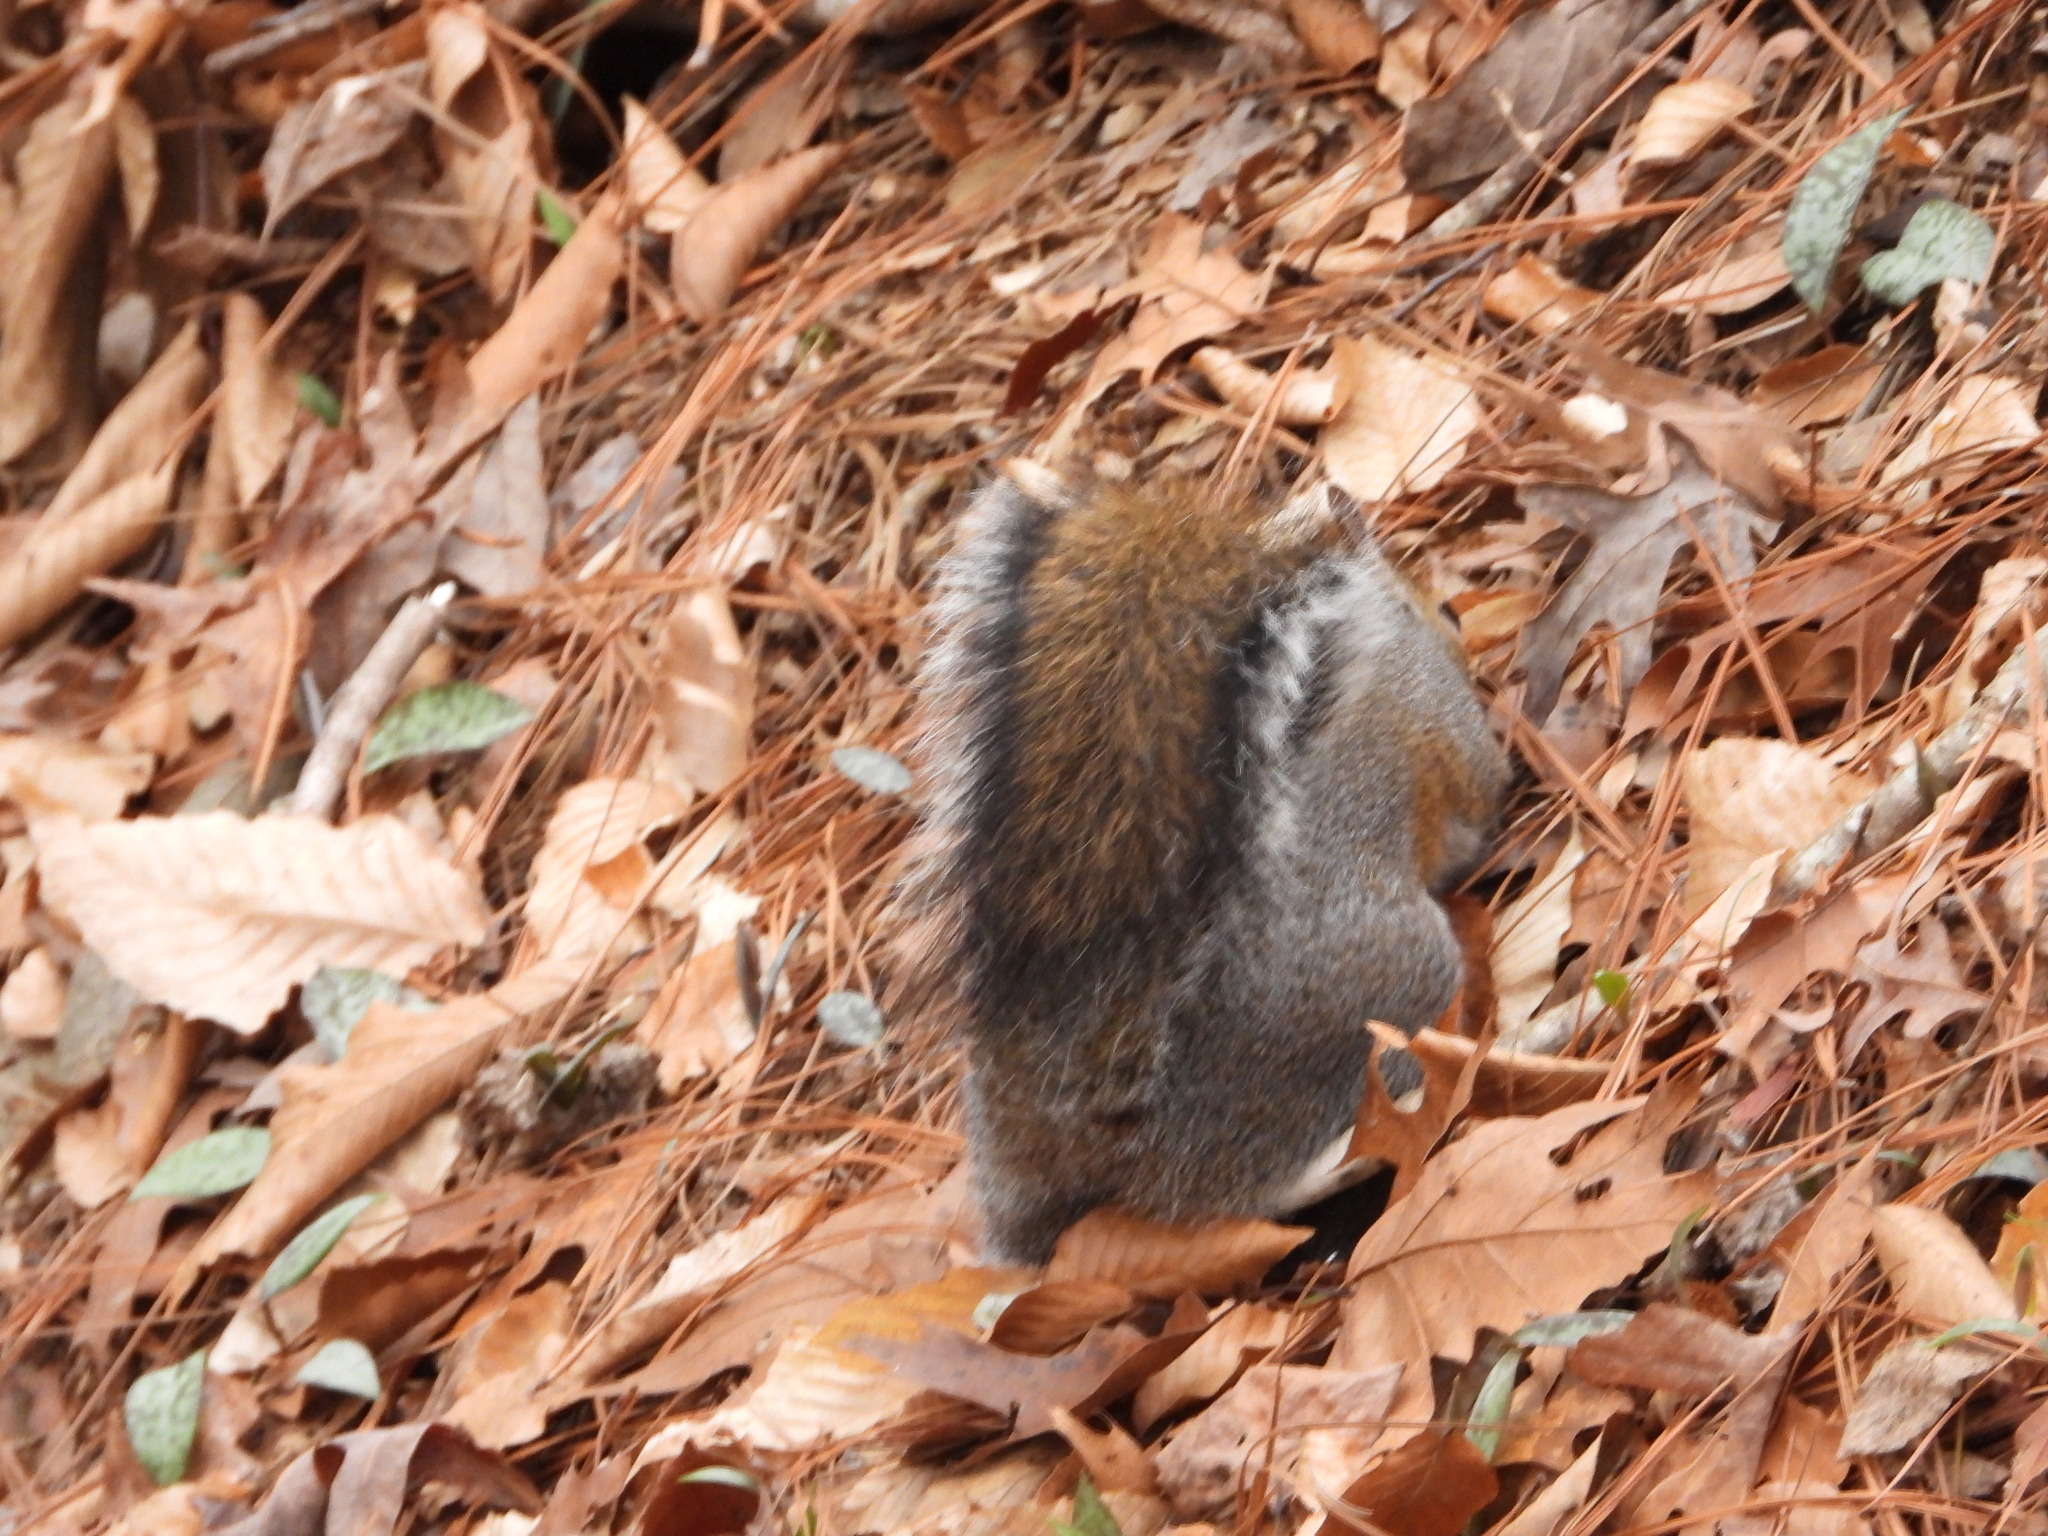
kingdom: Animalia
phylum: Chordata
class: Mammalia
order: Rodentia
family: Sciuridae
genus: Sciurus
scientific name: Sciurus carolinensis
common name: Eastern gray squirrel
